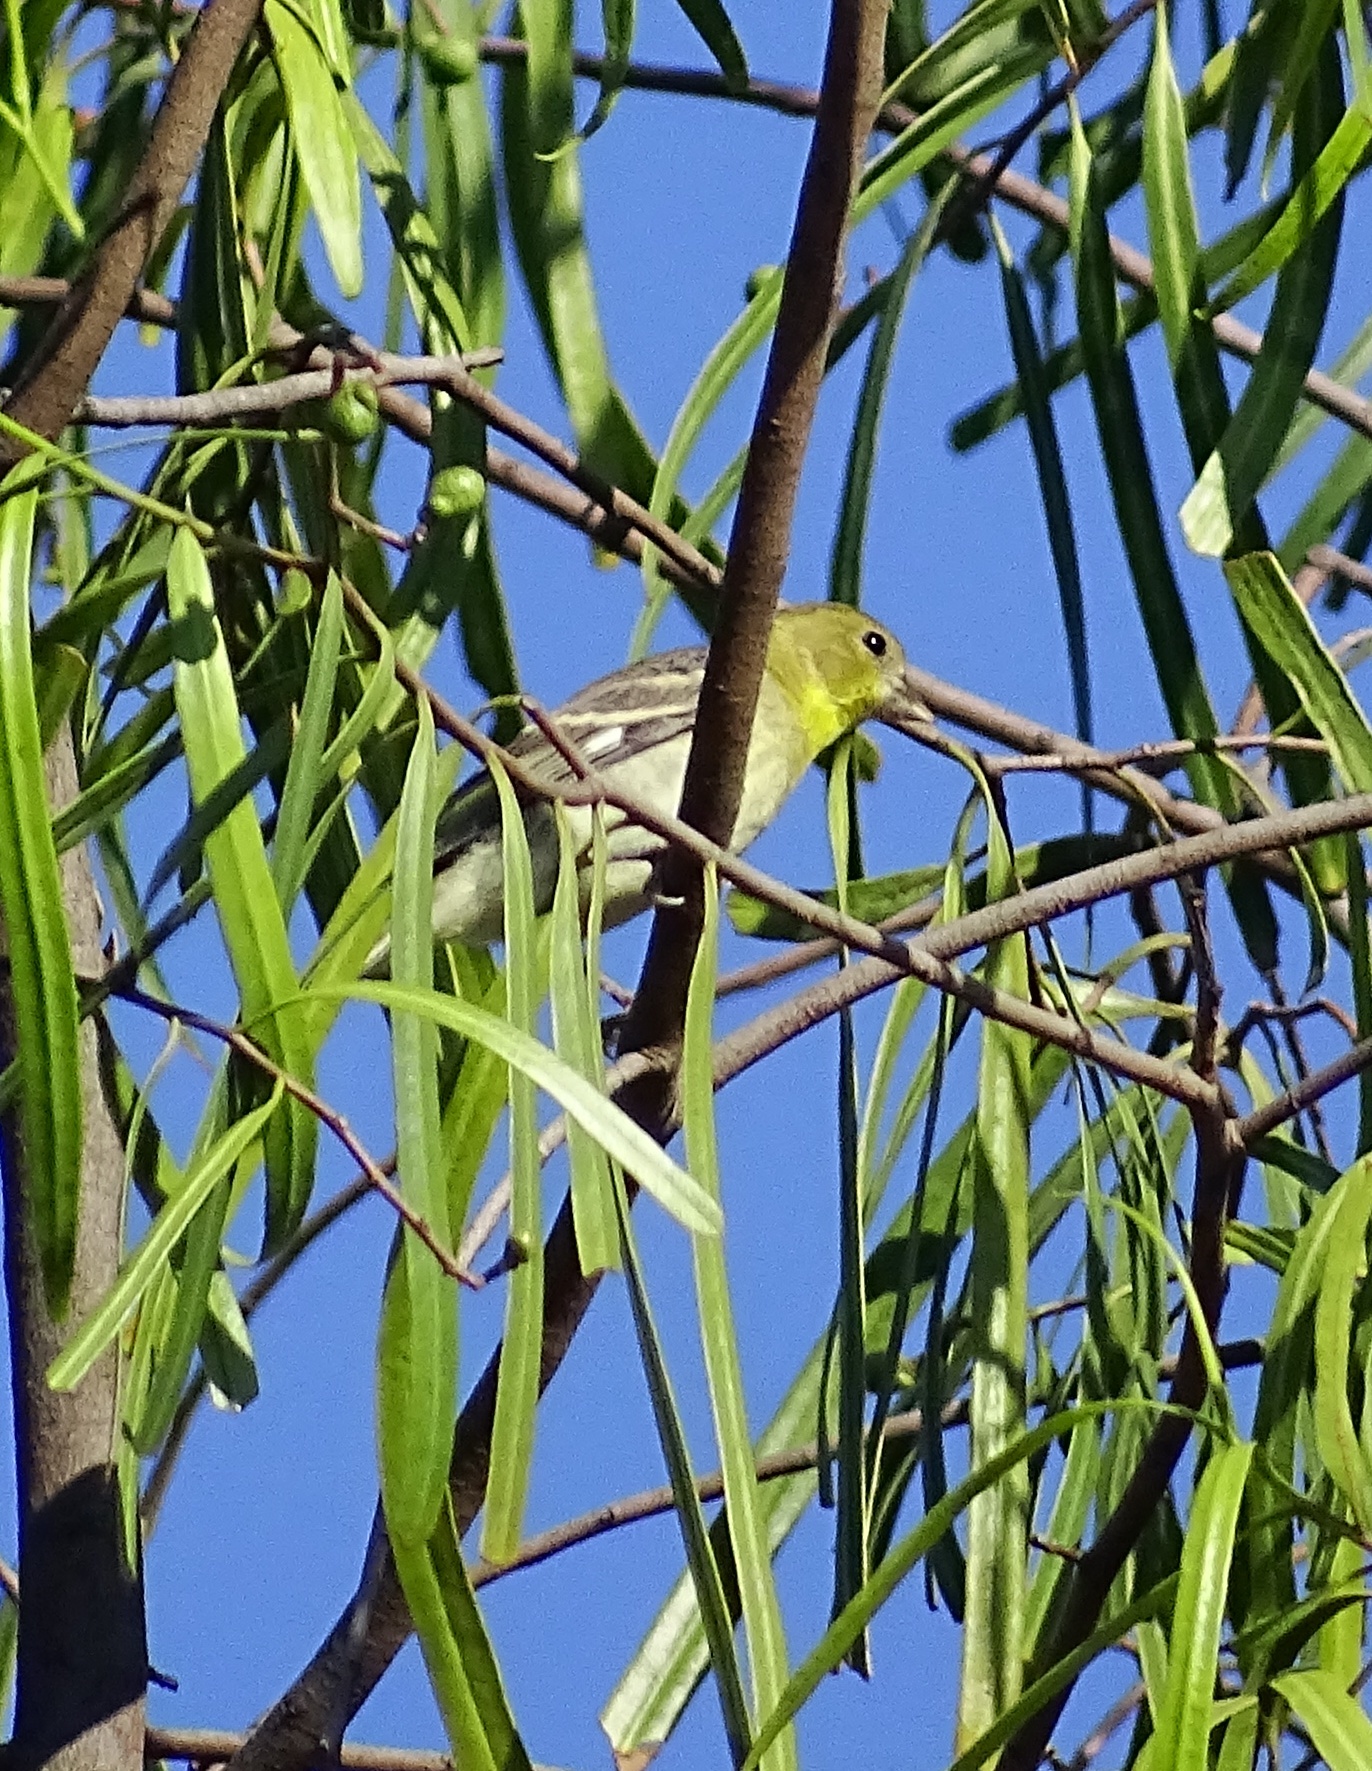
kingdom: Animalia
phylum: Chordata
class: Aves
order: Passeriformes
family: Fringillidae
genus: Spinus
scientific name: Spinus psaltria
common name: Lesser goldfinch
